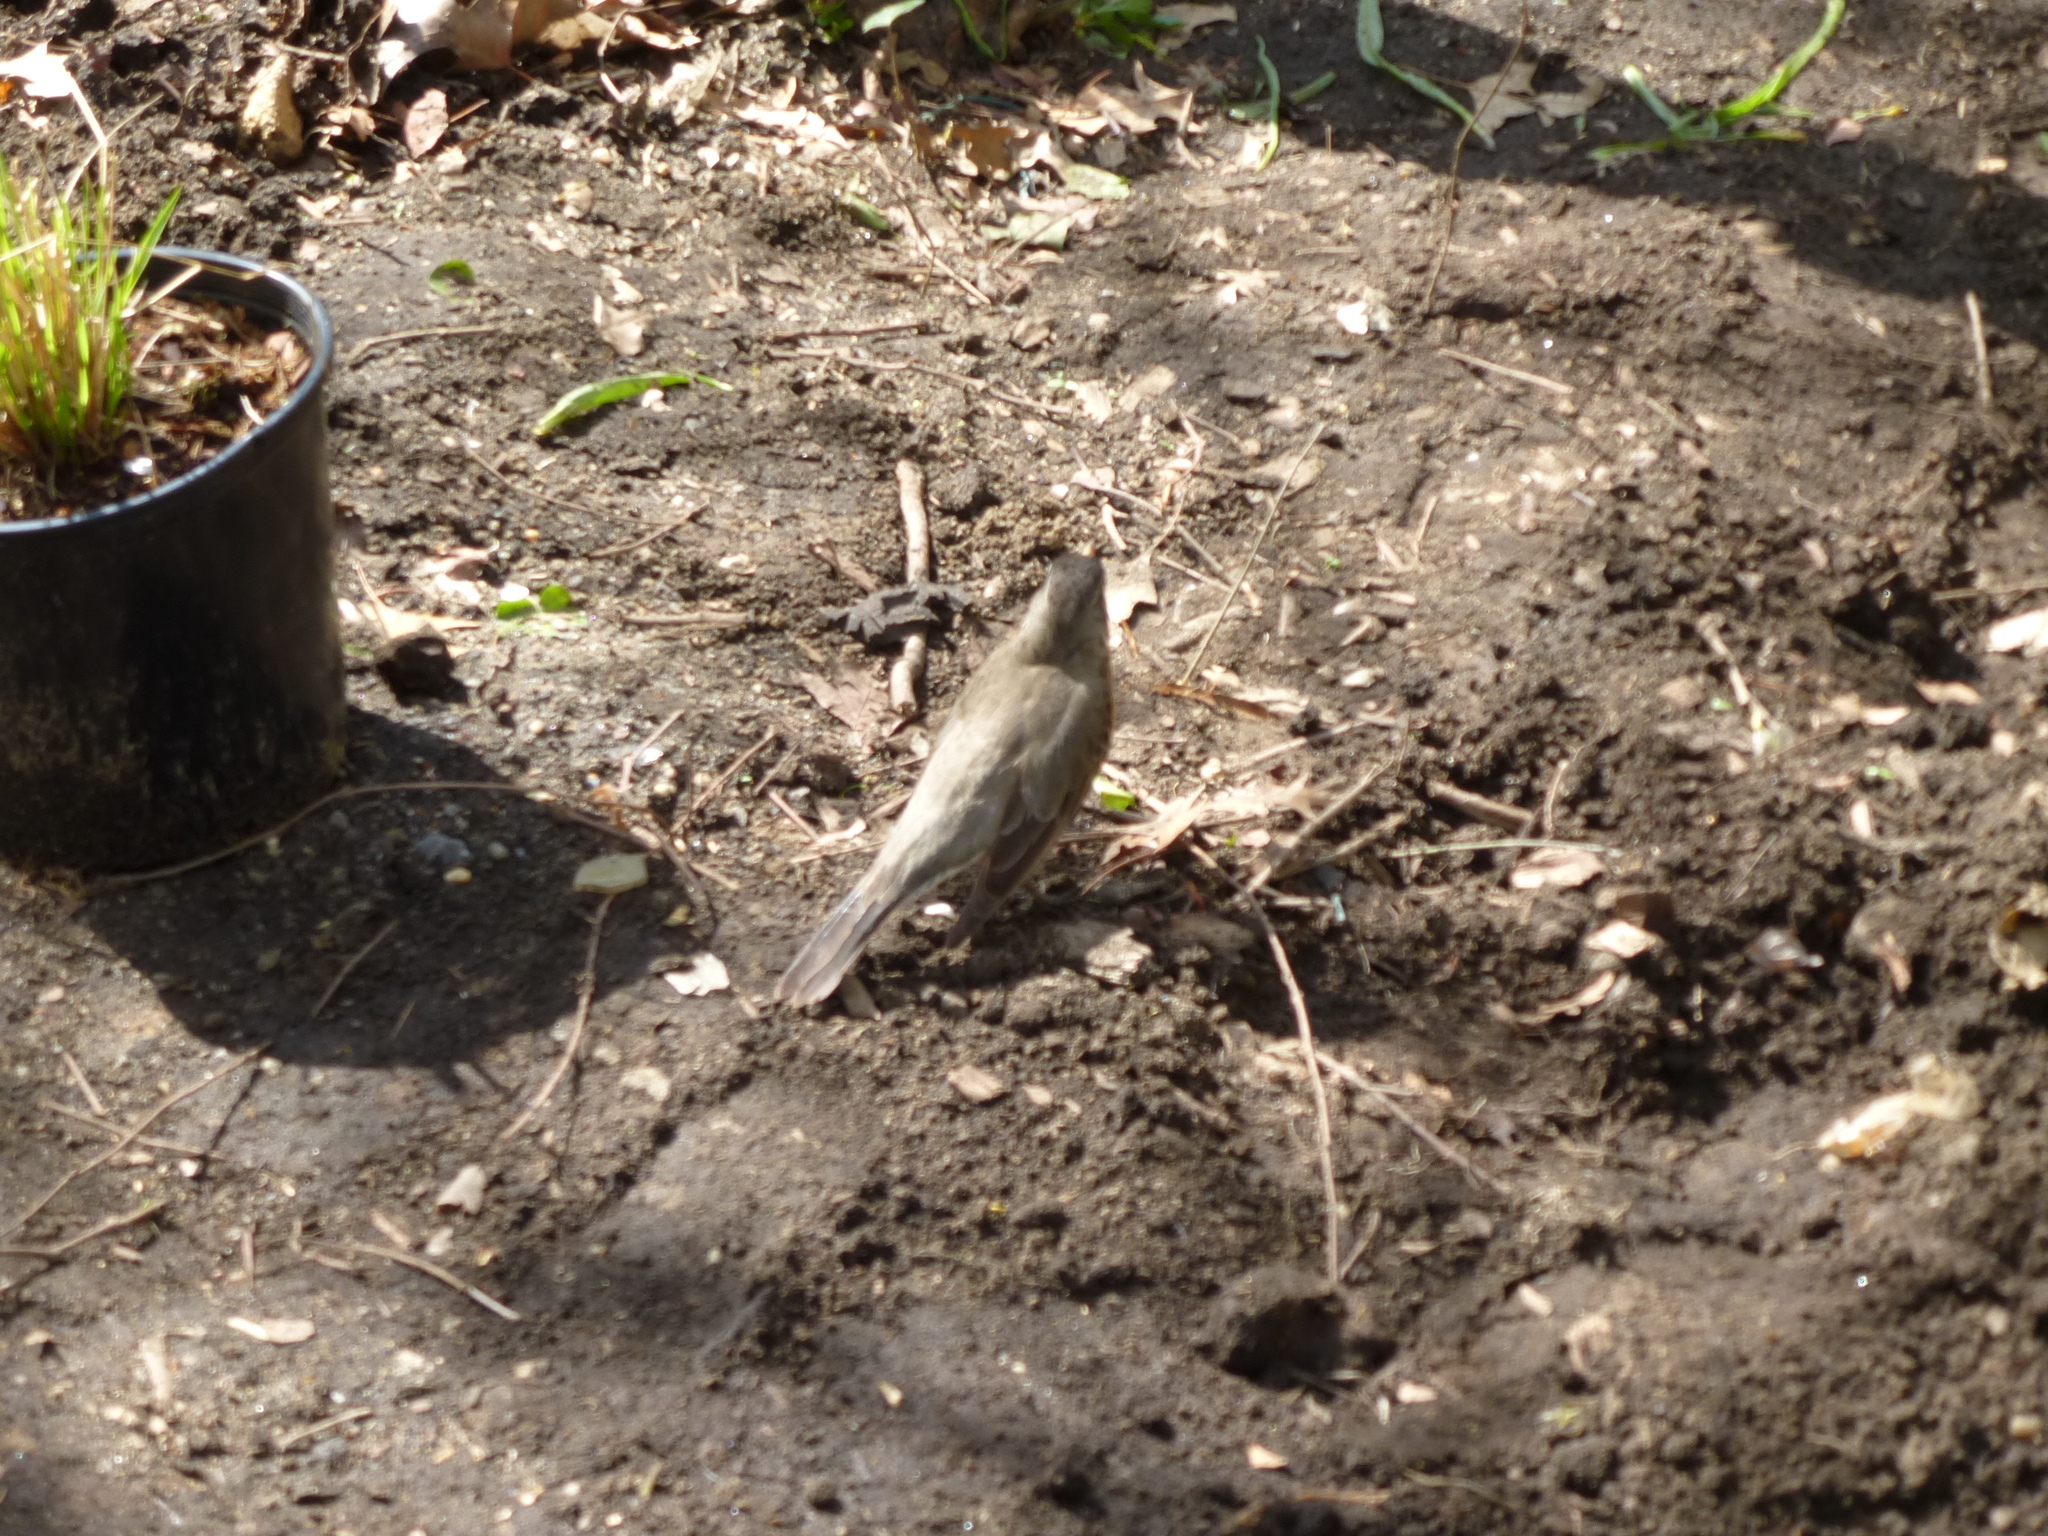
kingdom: Animalia
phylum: Chordata
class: Aves
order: Passeriformes
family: Turdidae
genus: Turdus
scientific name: Turdus migratorius
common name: American robin
